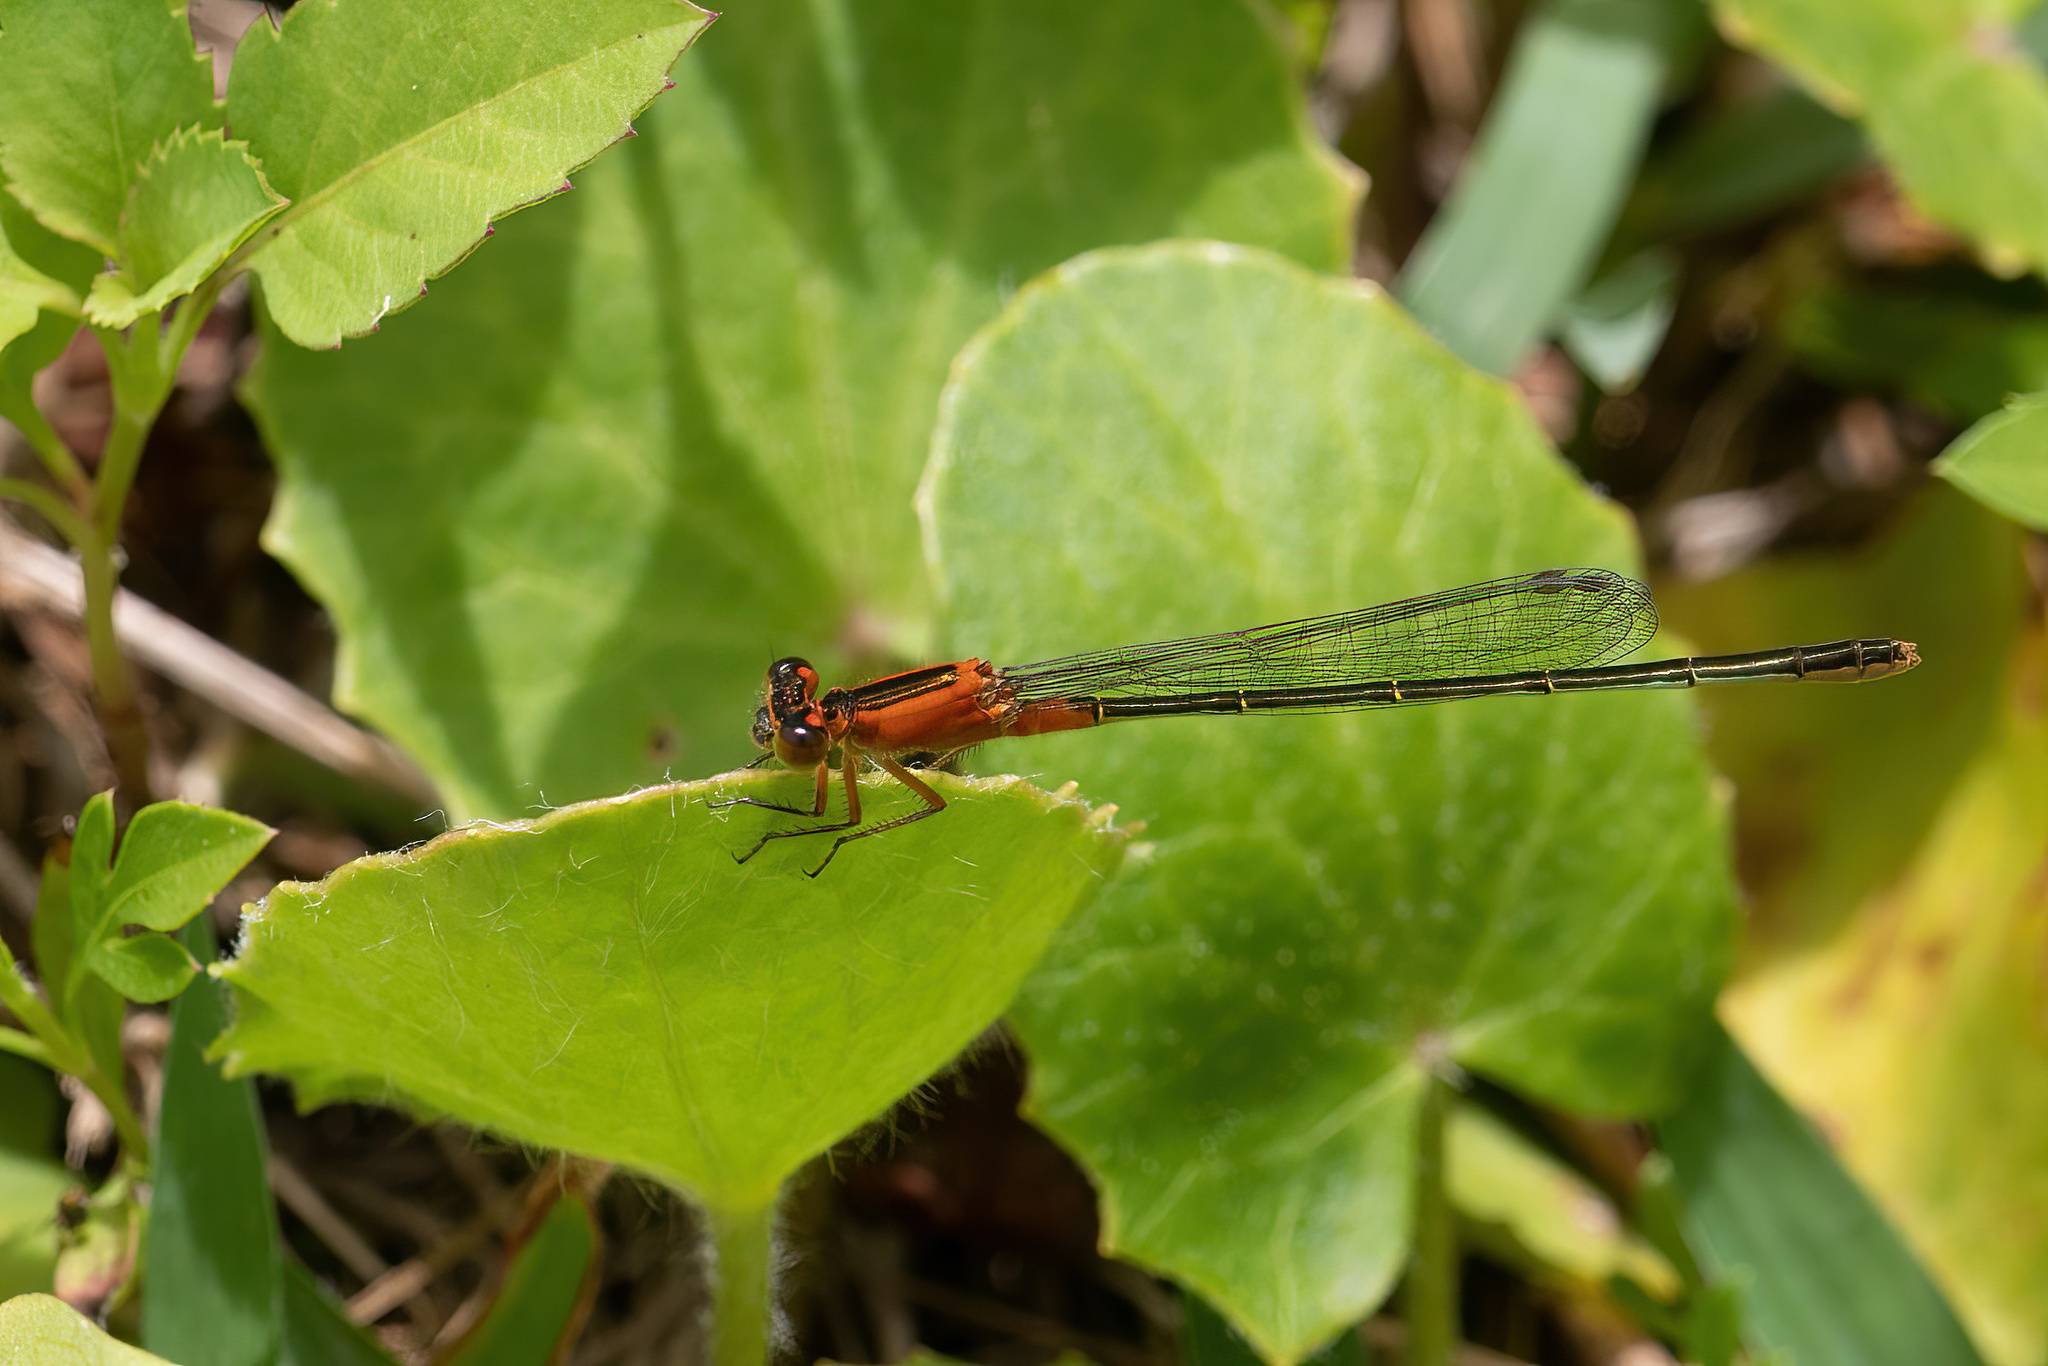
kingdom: Animalia
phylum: Arthropoda
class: Insecta
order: Odonata
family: Coenagrionidae
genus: Ischnura
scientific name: Ischnura ramburii
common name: Rambur's forktail
